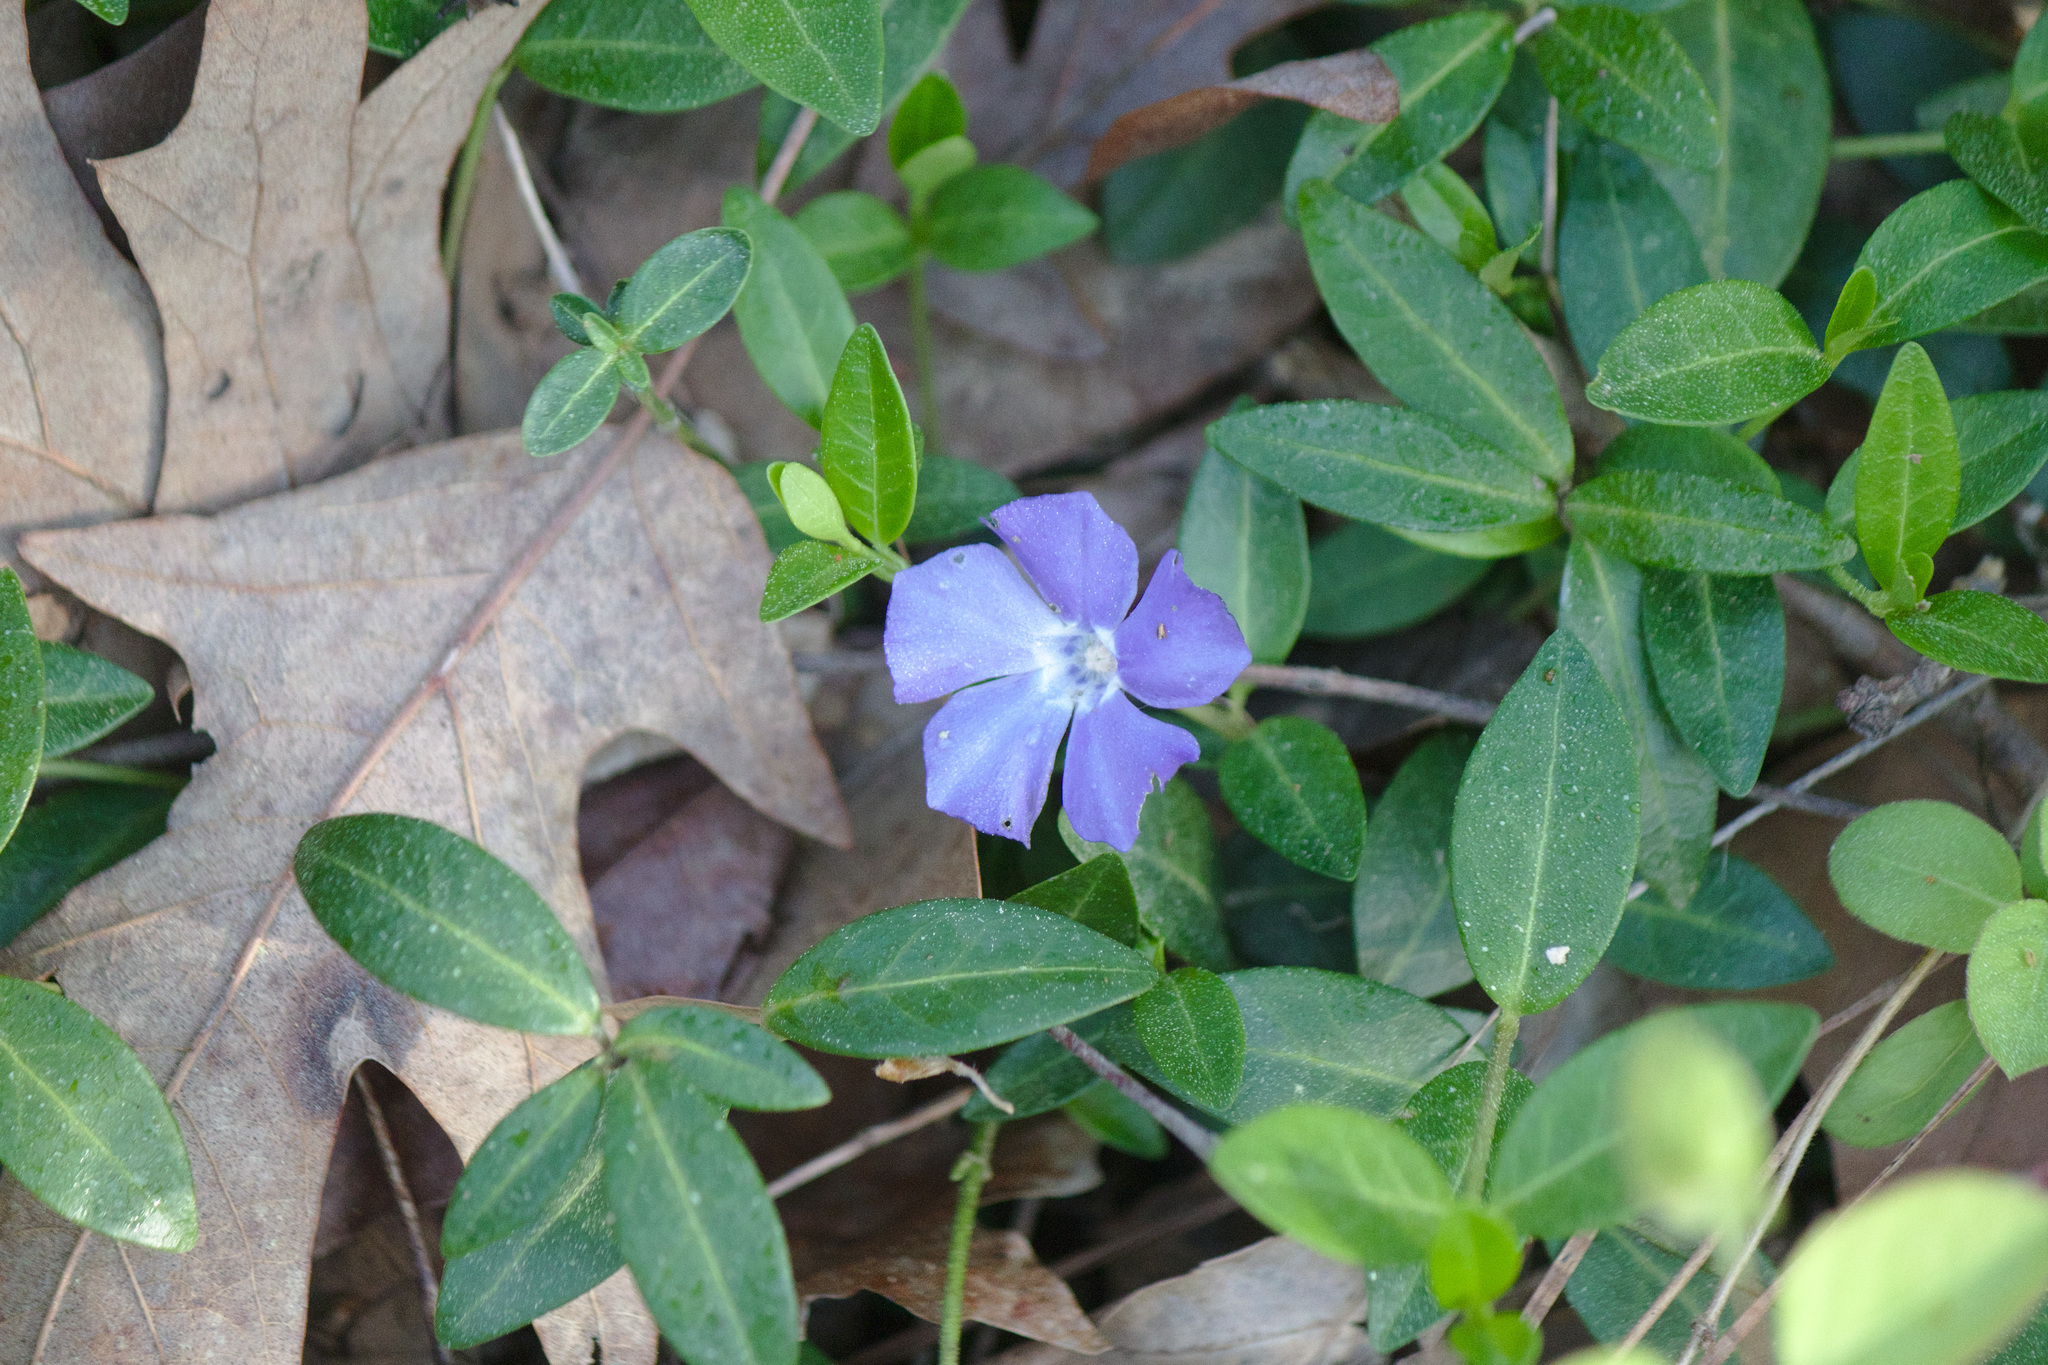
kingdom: Plantae
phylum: Tracheophyta
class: Magnoliopsida
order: Gentianales
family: Apocynaceae
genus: Vinca
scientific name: Vinca minor
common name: Lesser periwinkle
